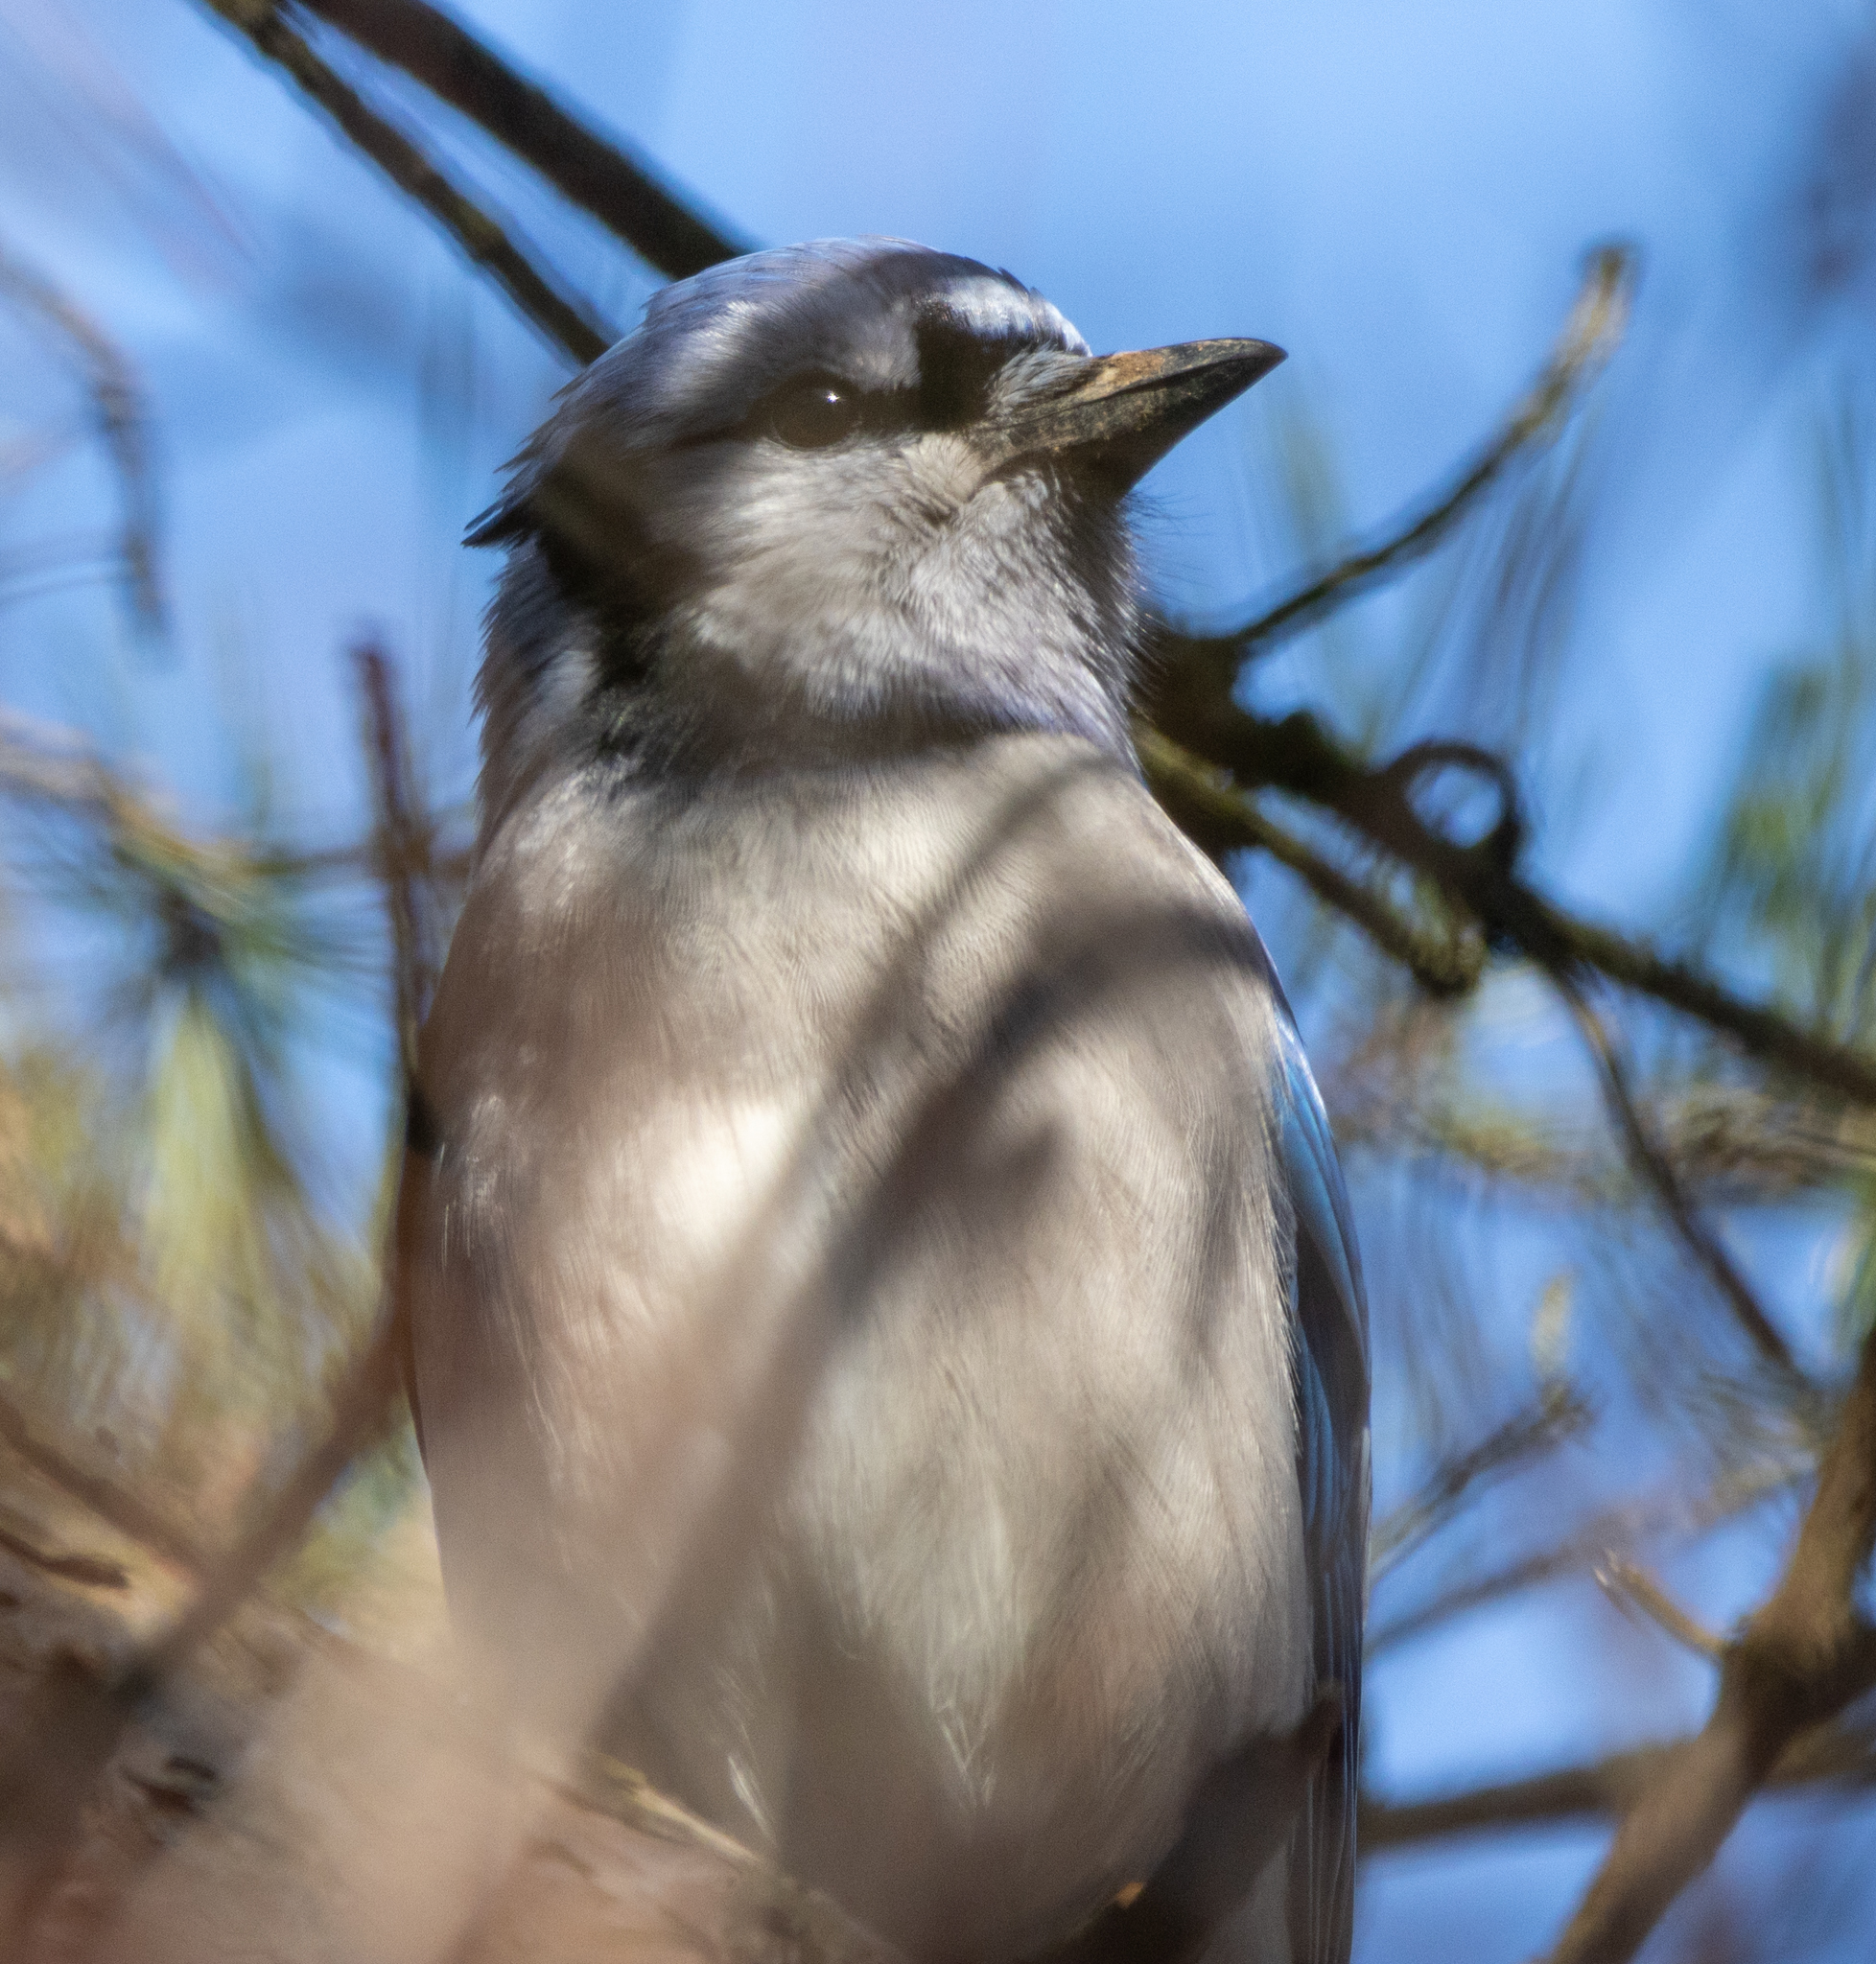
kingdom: Animalia
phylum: Chordata
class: Aves
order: Passeriformes
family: Corvidae
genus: Cyanocitta
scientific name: Cyanocitta cristata
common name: Blue jay
